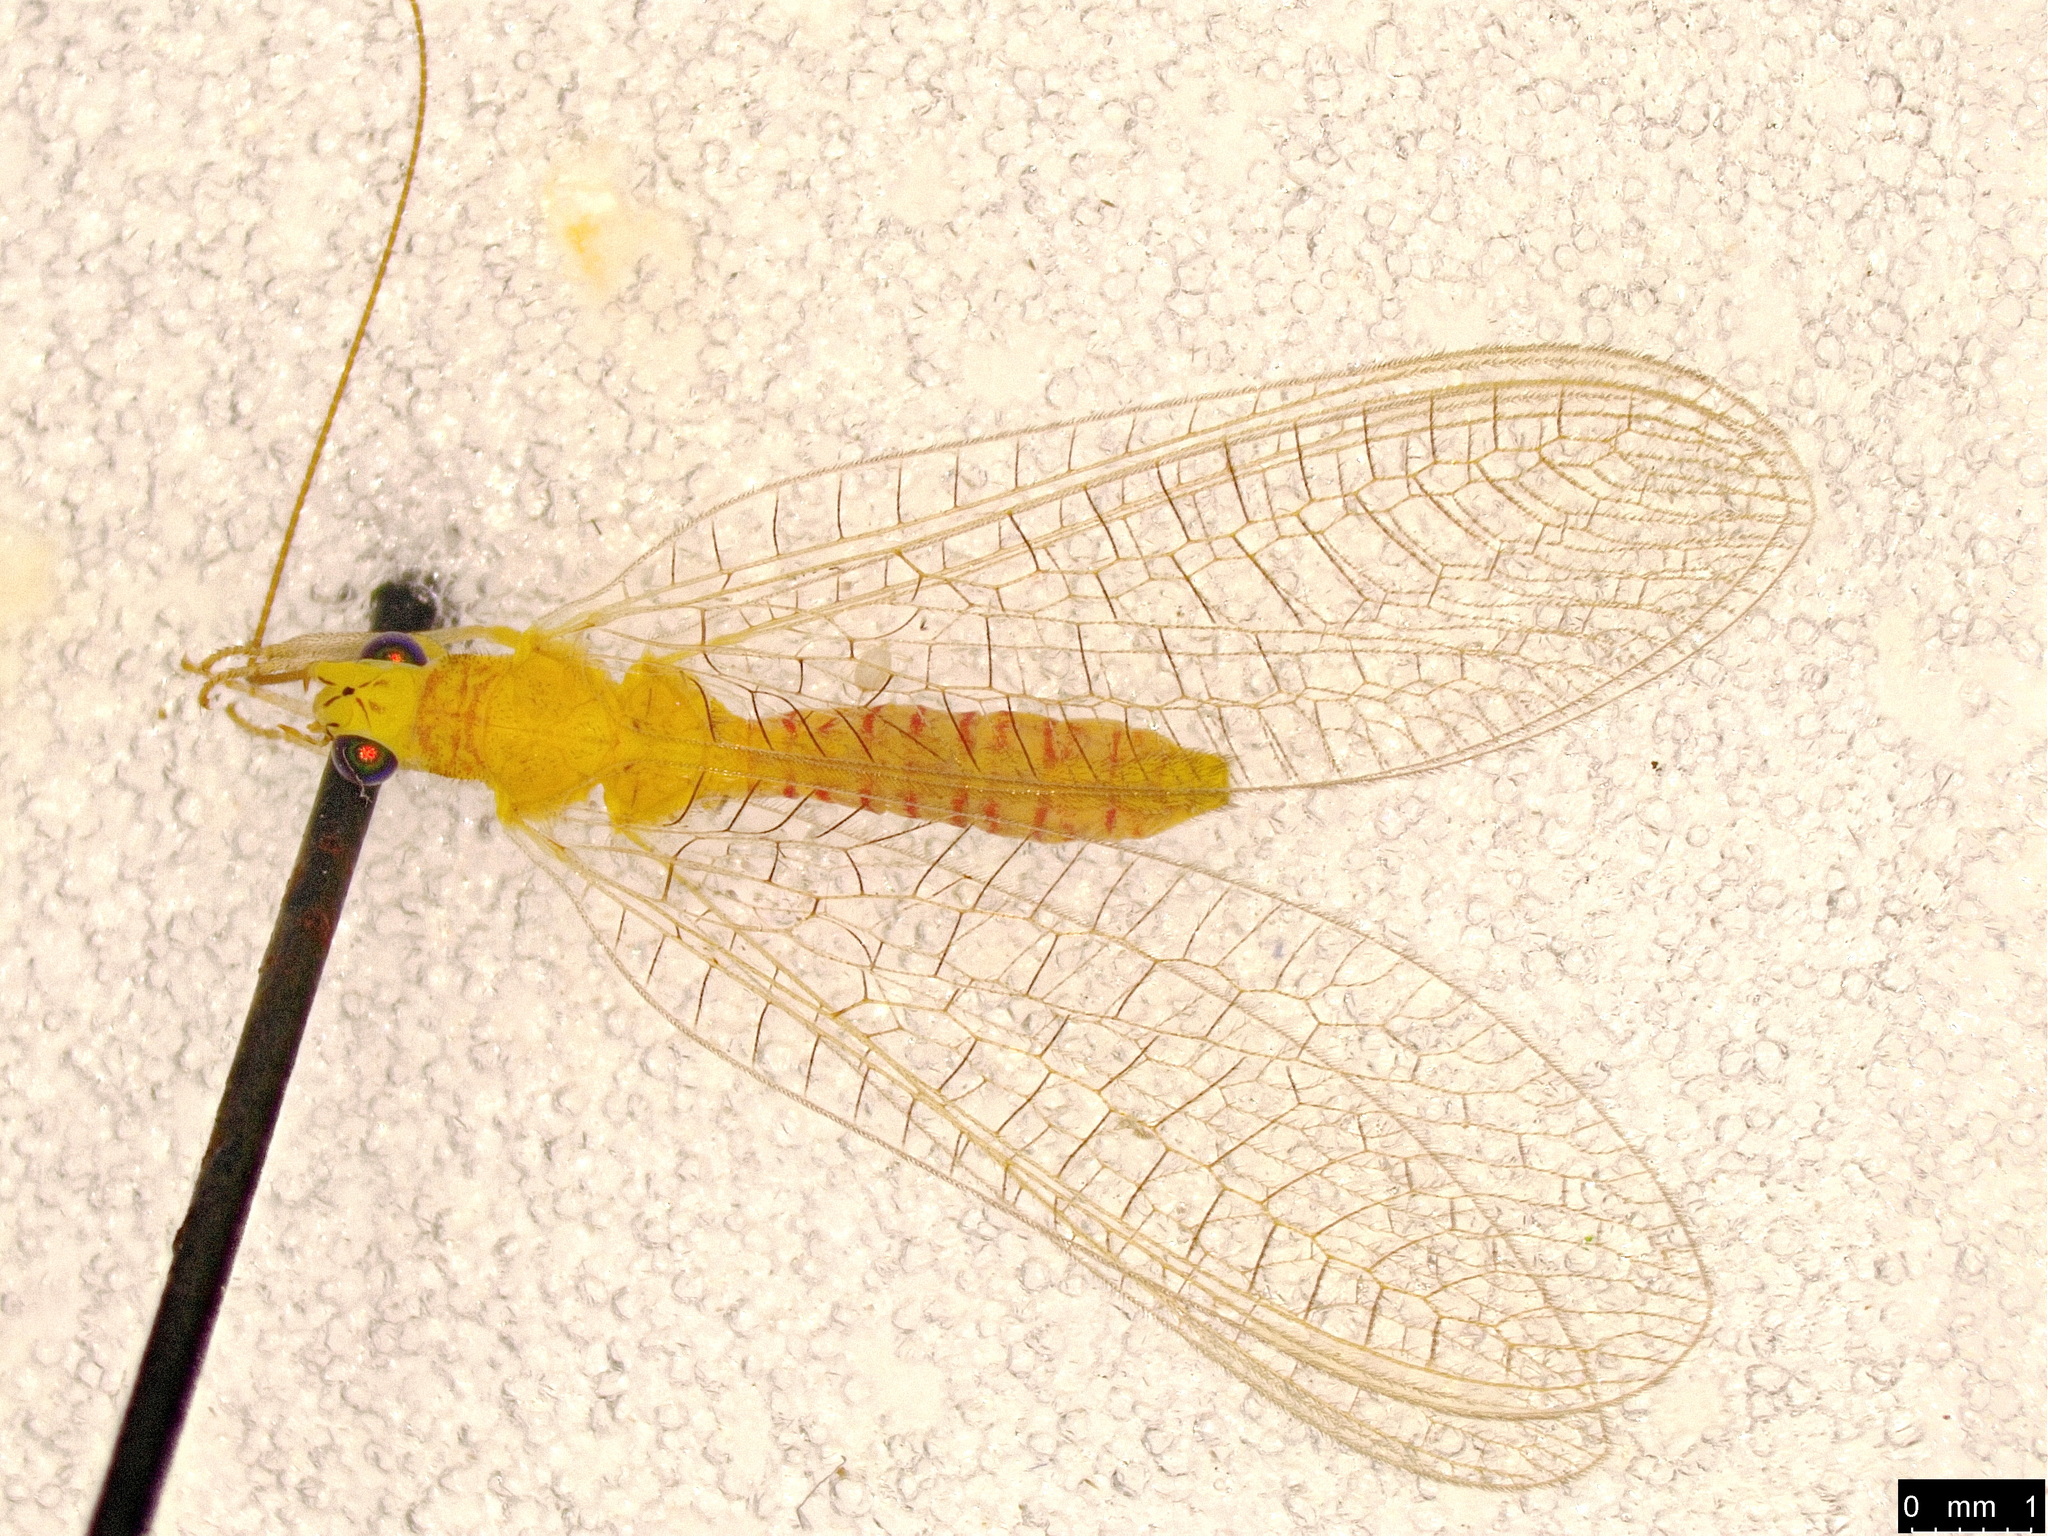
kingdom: Animalia
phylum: Arthropoda
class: Insecta
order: Neuroptera
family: Chrysopidae
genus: Mallada
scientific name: Mallada signatus
